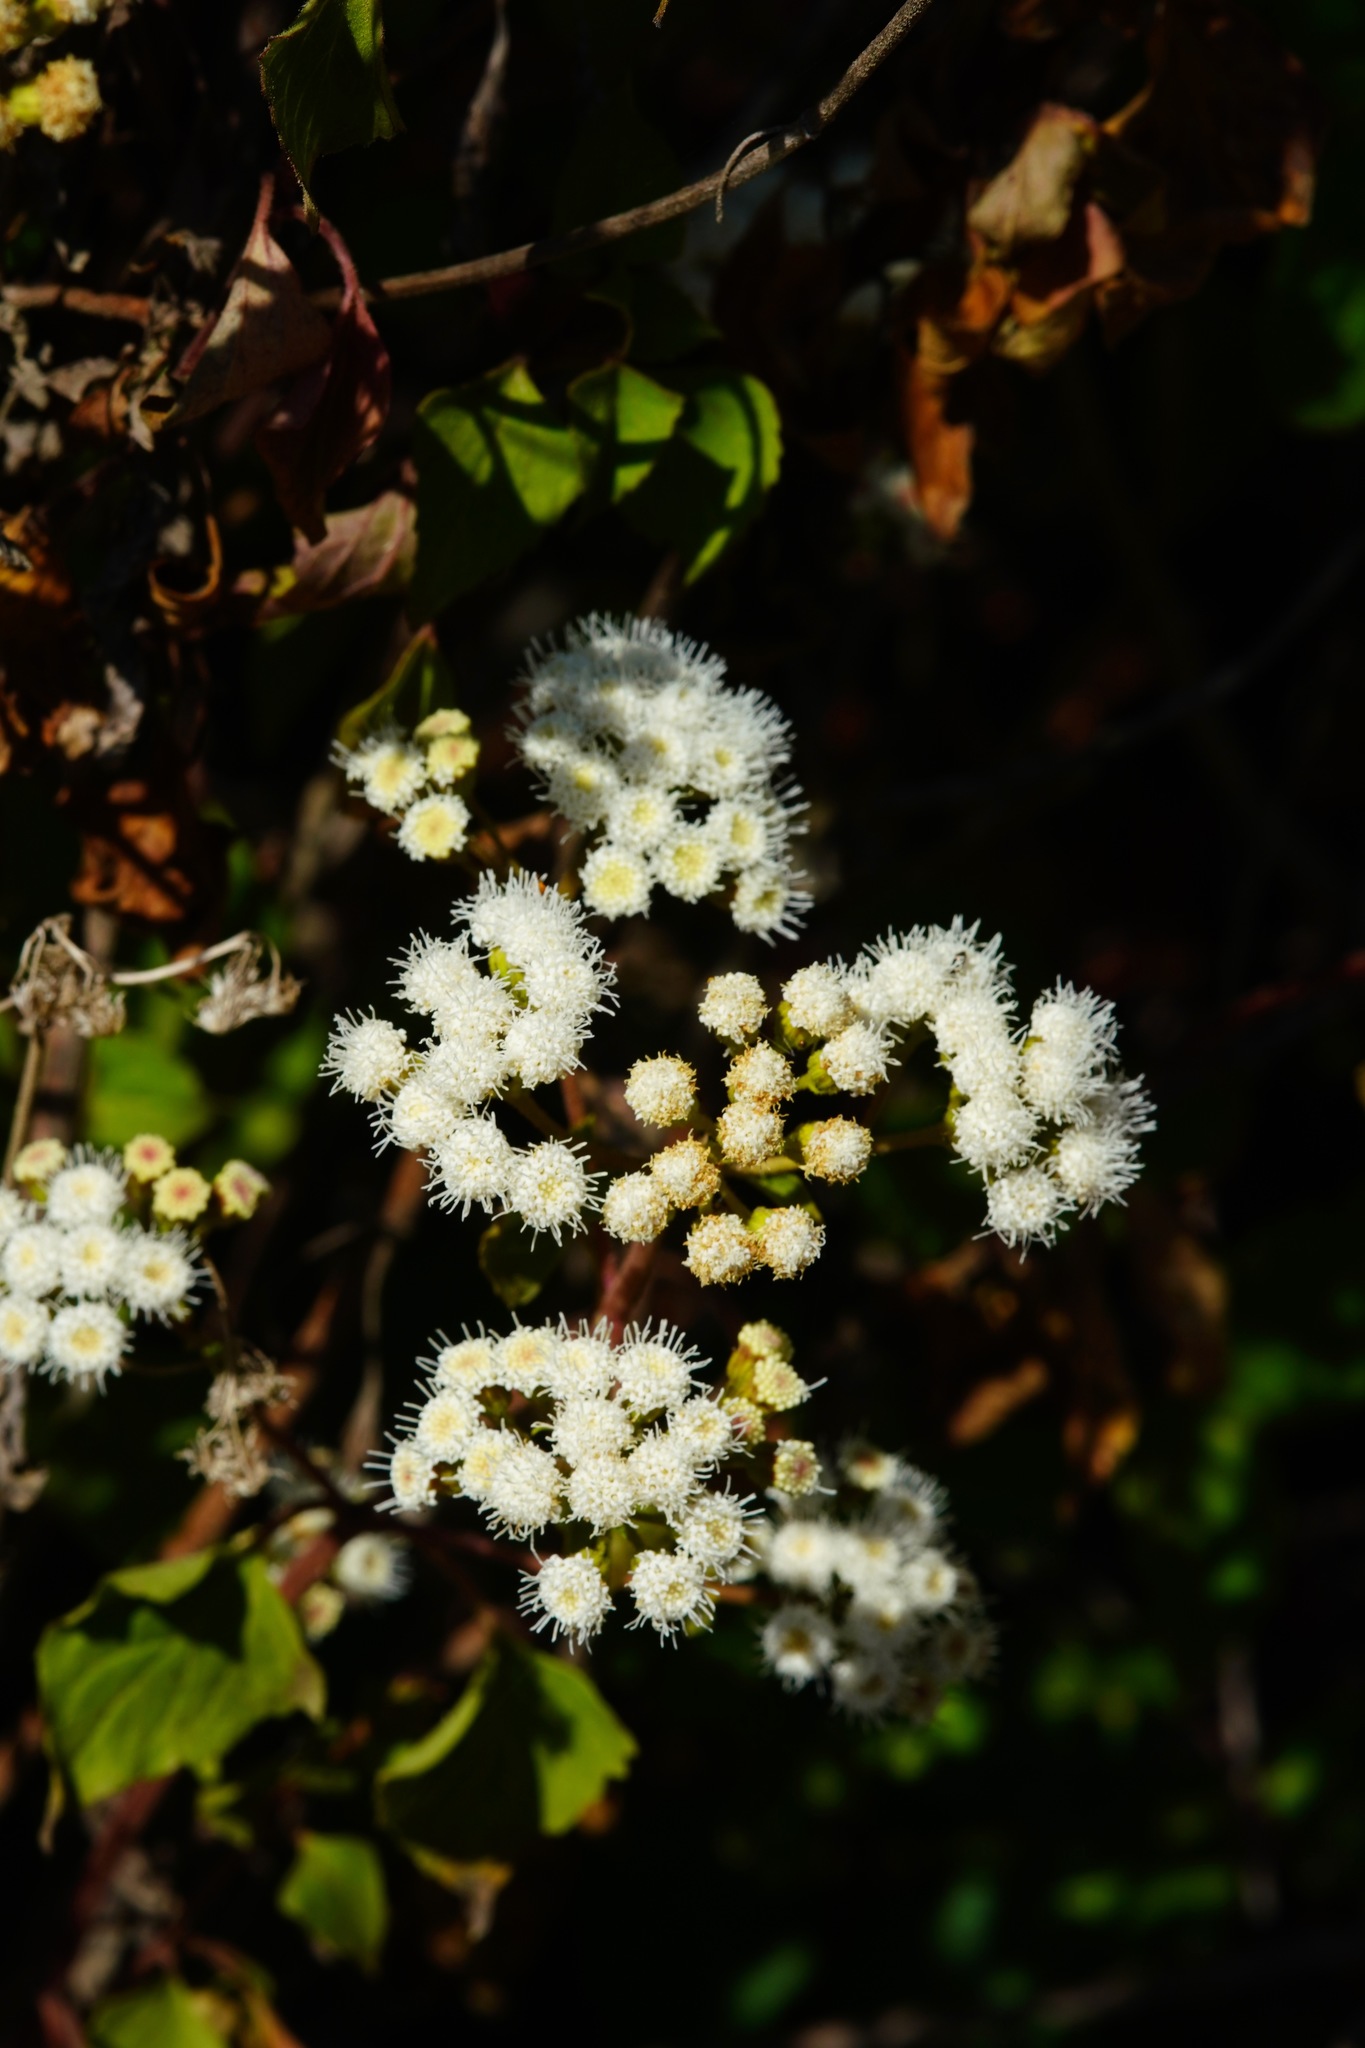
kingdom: Plantae
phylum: Tracheophyta
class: Magnoliopsida
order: Asterales
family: Asteraceae
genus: Ageratina
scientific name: Ageratina adenophora
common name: Sticky snakeroot
